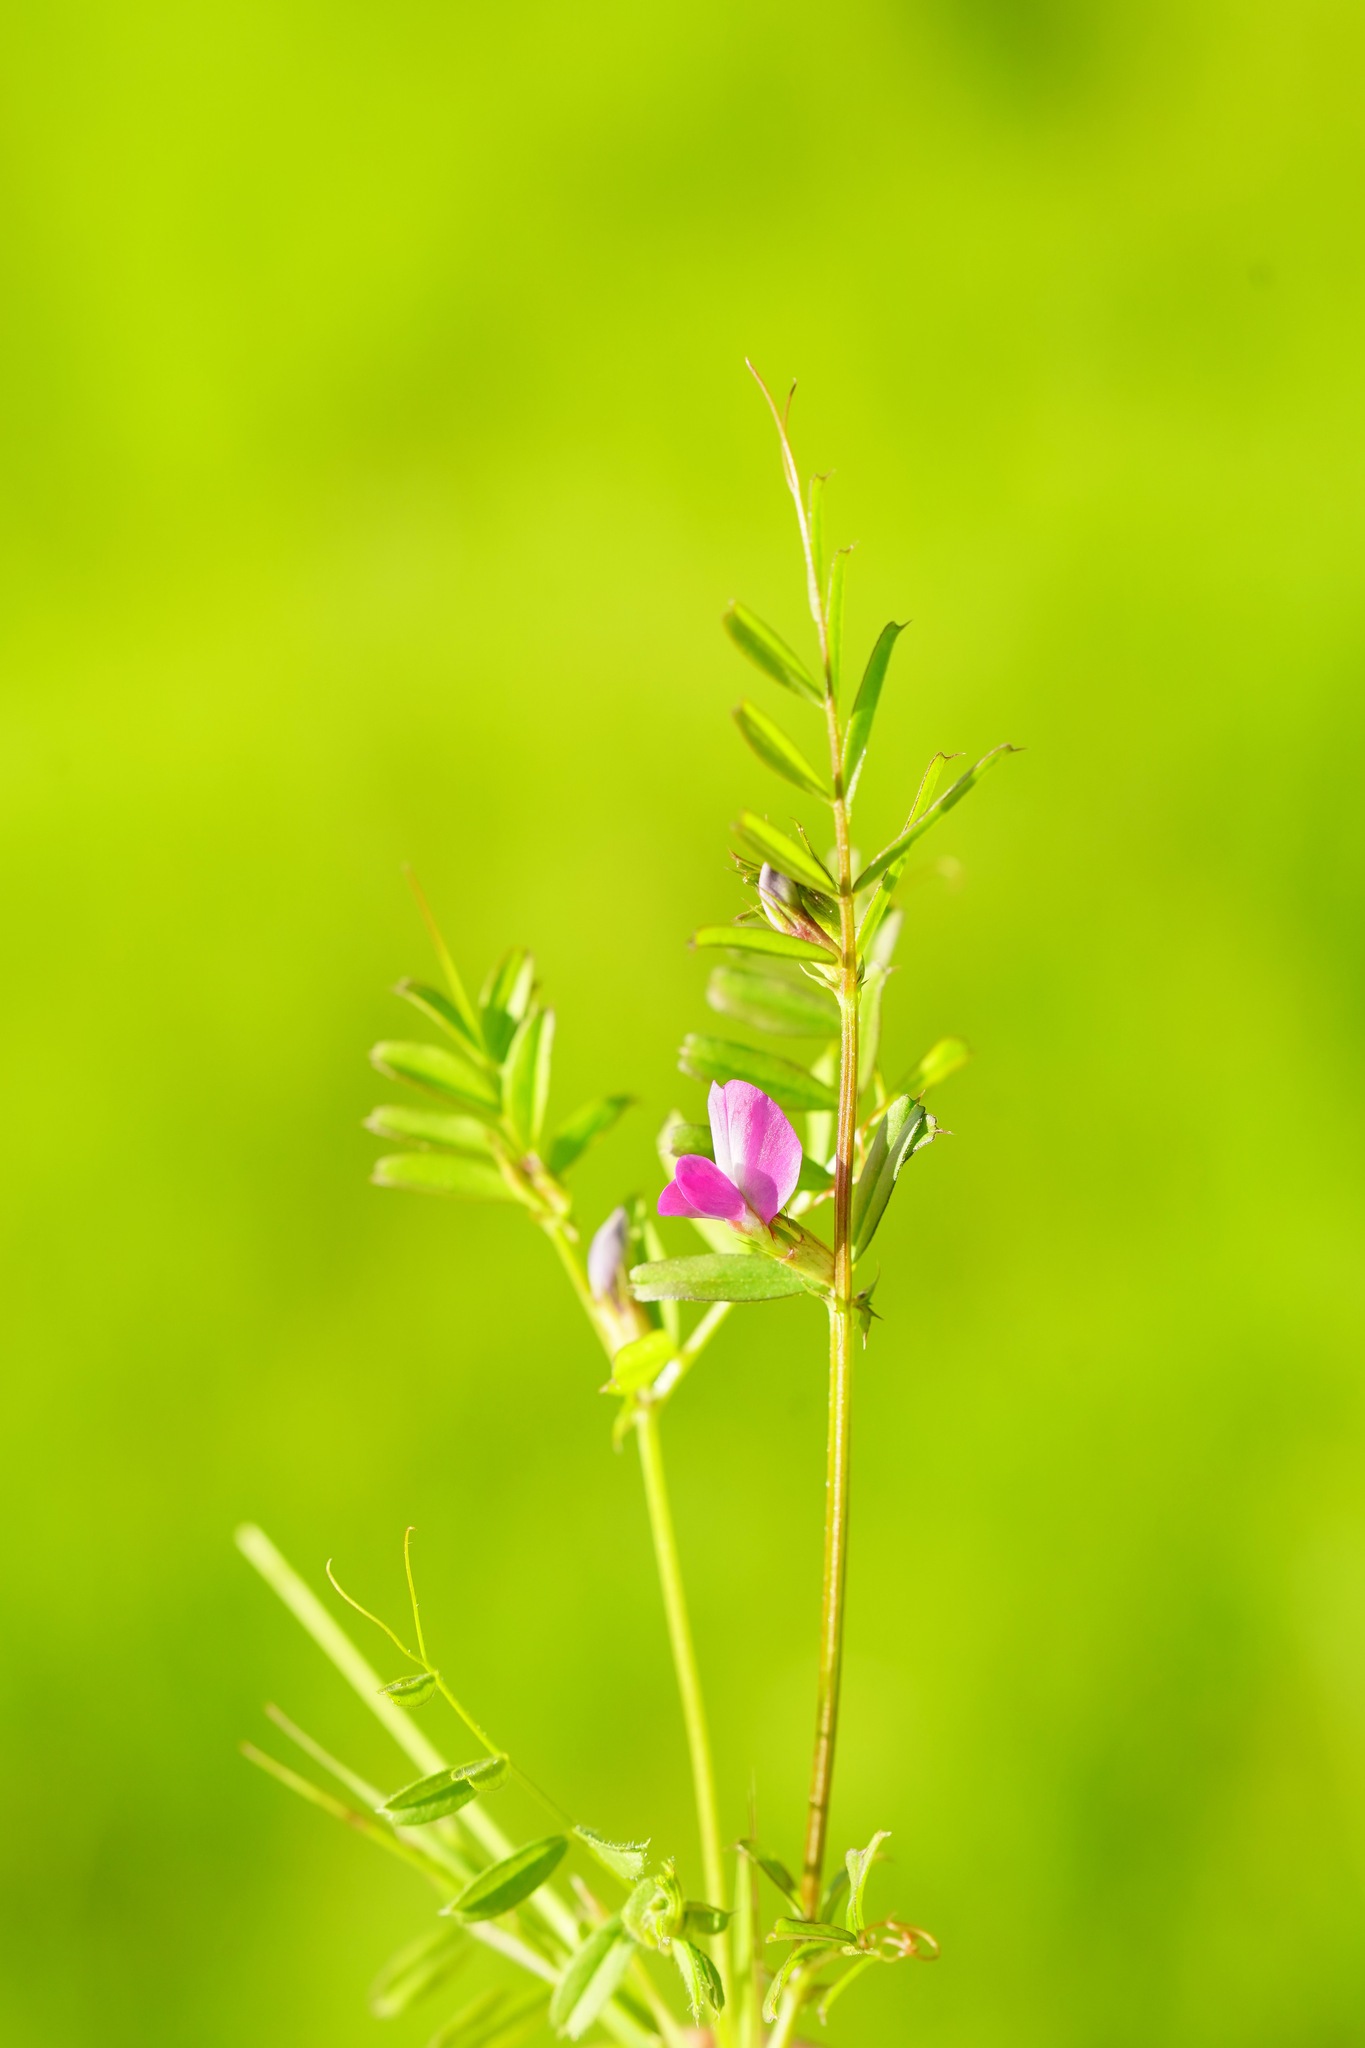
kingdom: Plantae
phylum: Tracheophyta
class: Magnoliopsida
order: Fabales
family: Fabaceae
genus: Vicia
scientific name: Vicia sativa
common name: Garden vetch
